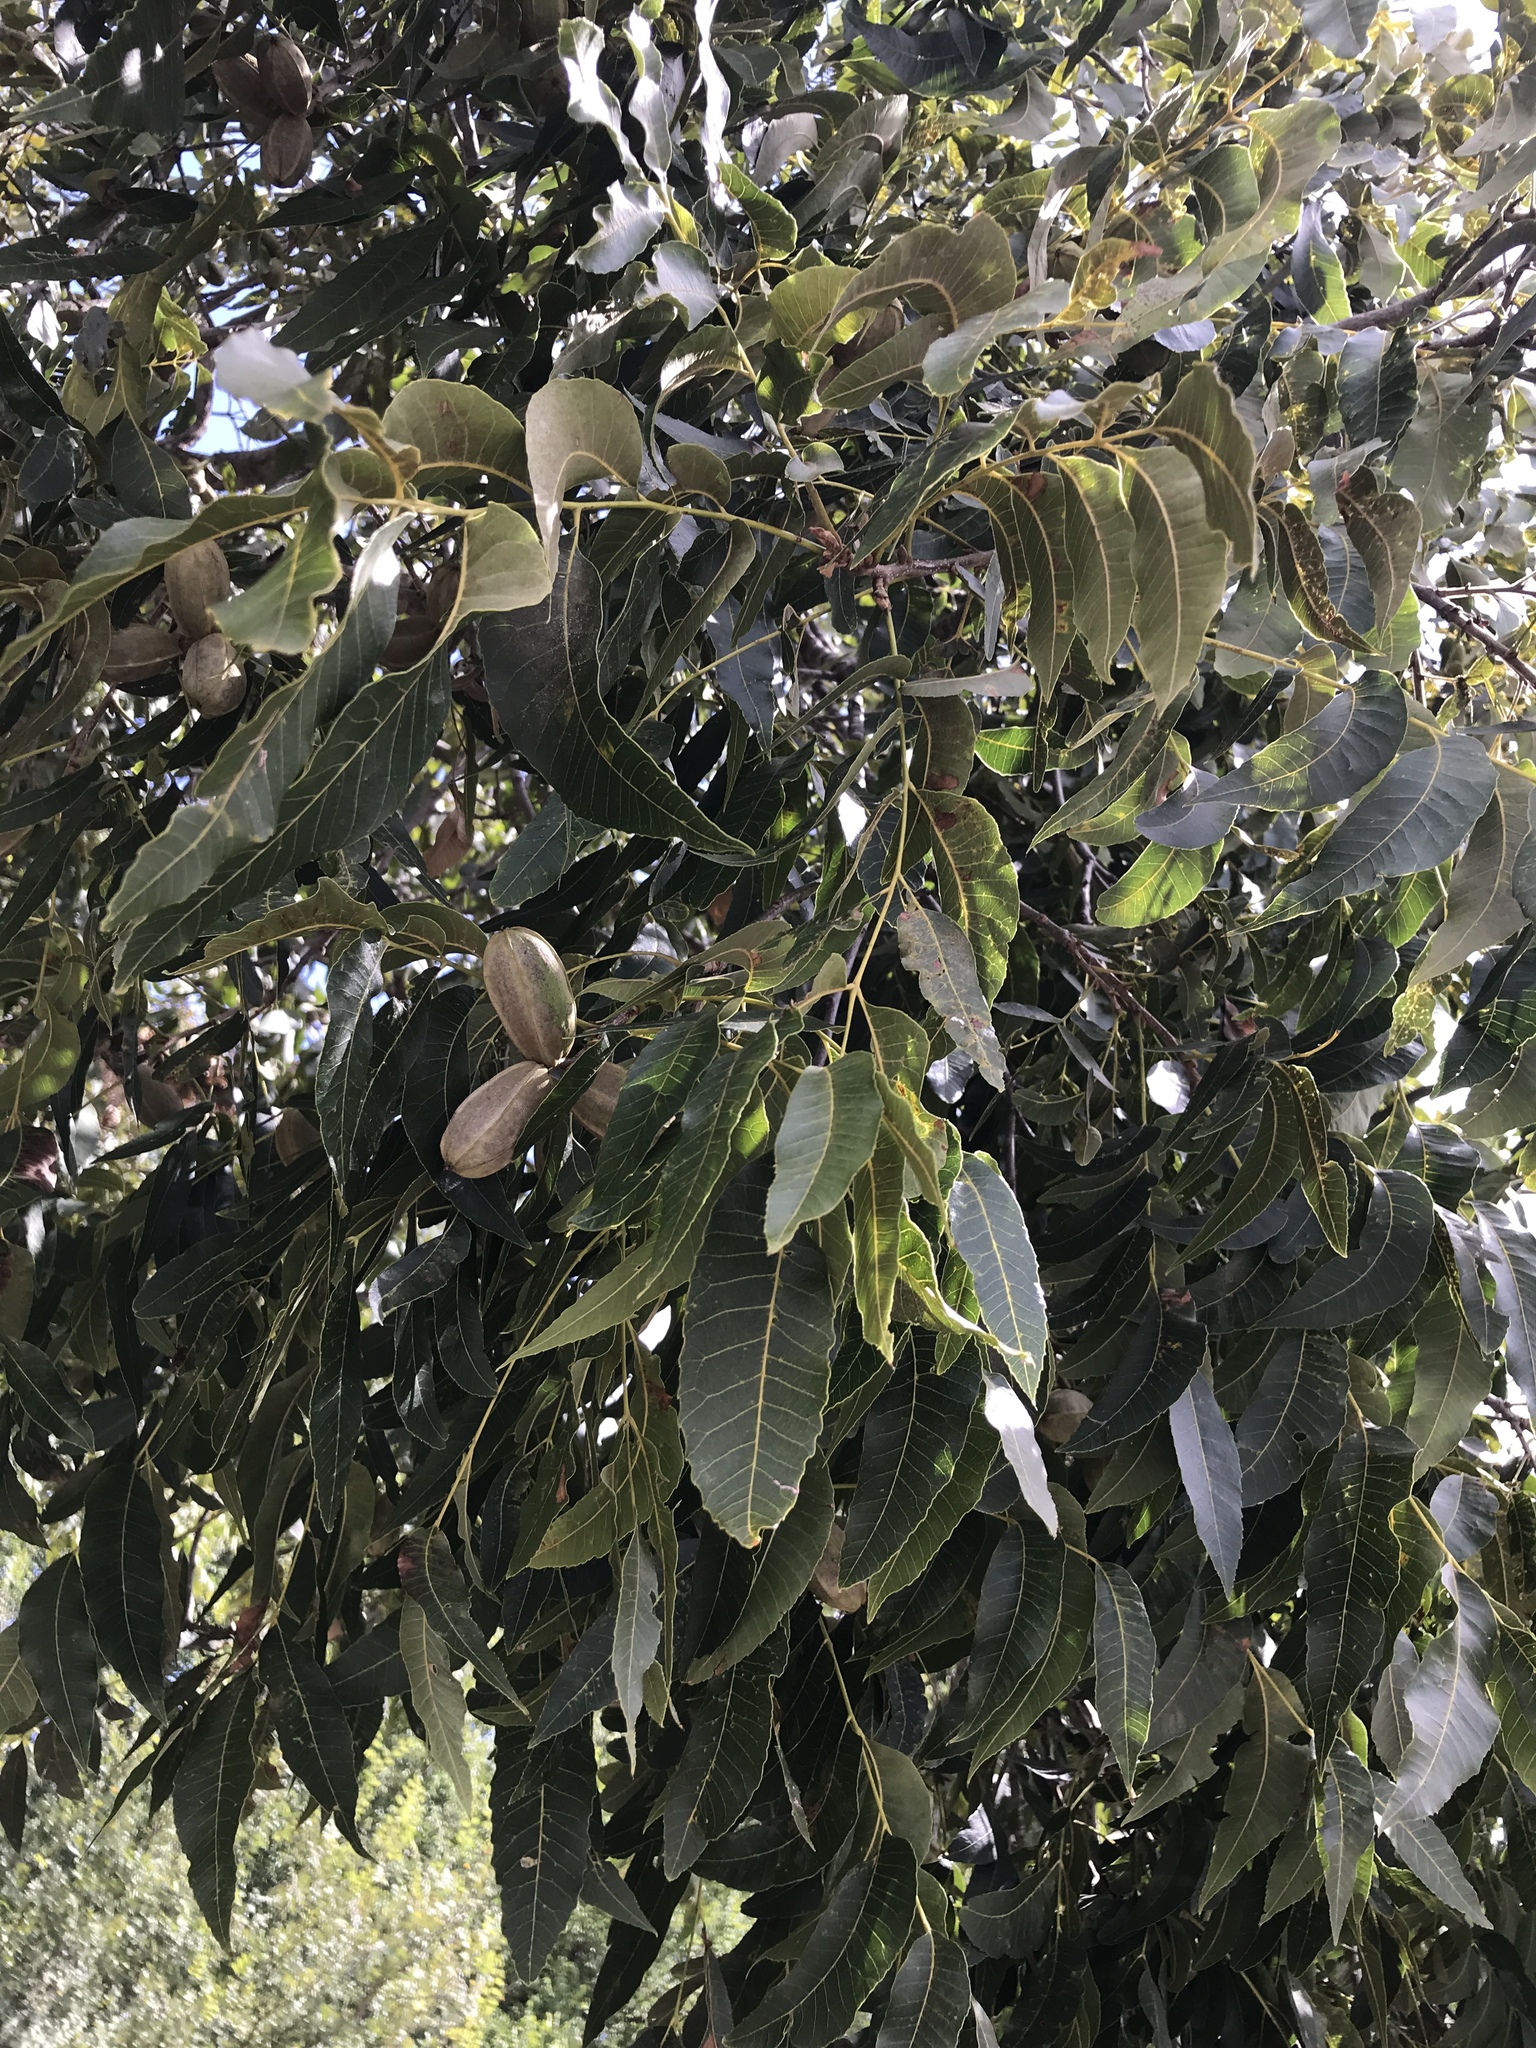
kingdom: Plantae
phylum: Tracheophyta
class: Magnoliopsida
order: Fagales
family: Juglandaceae
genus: Carya
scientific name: Carya illinoinensis
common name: Pecan
